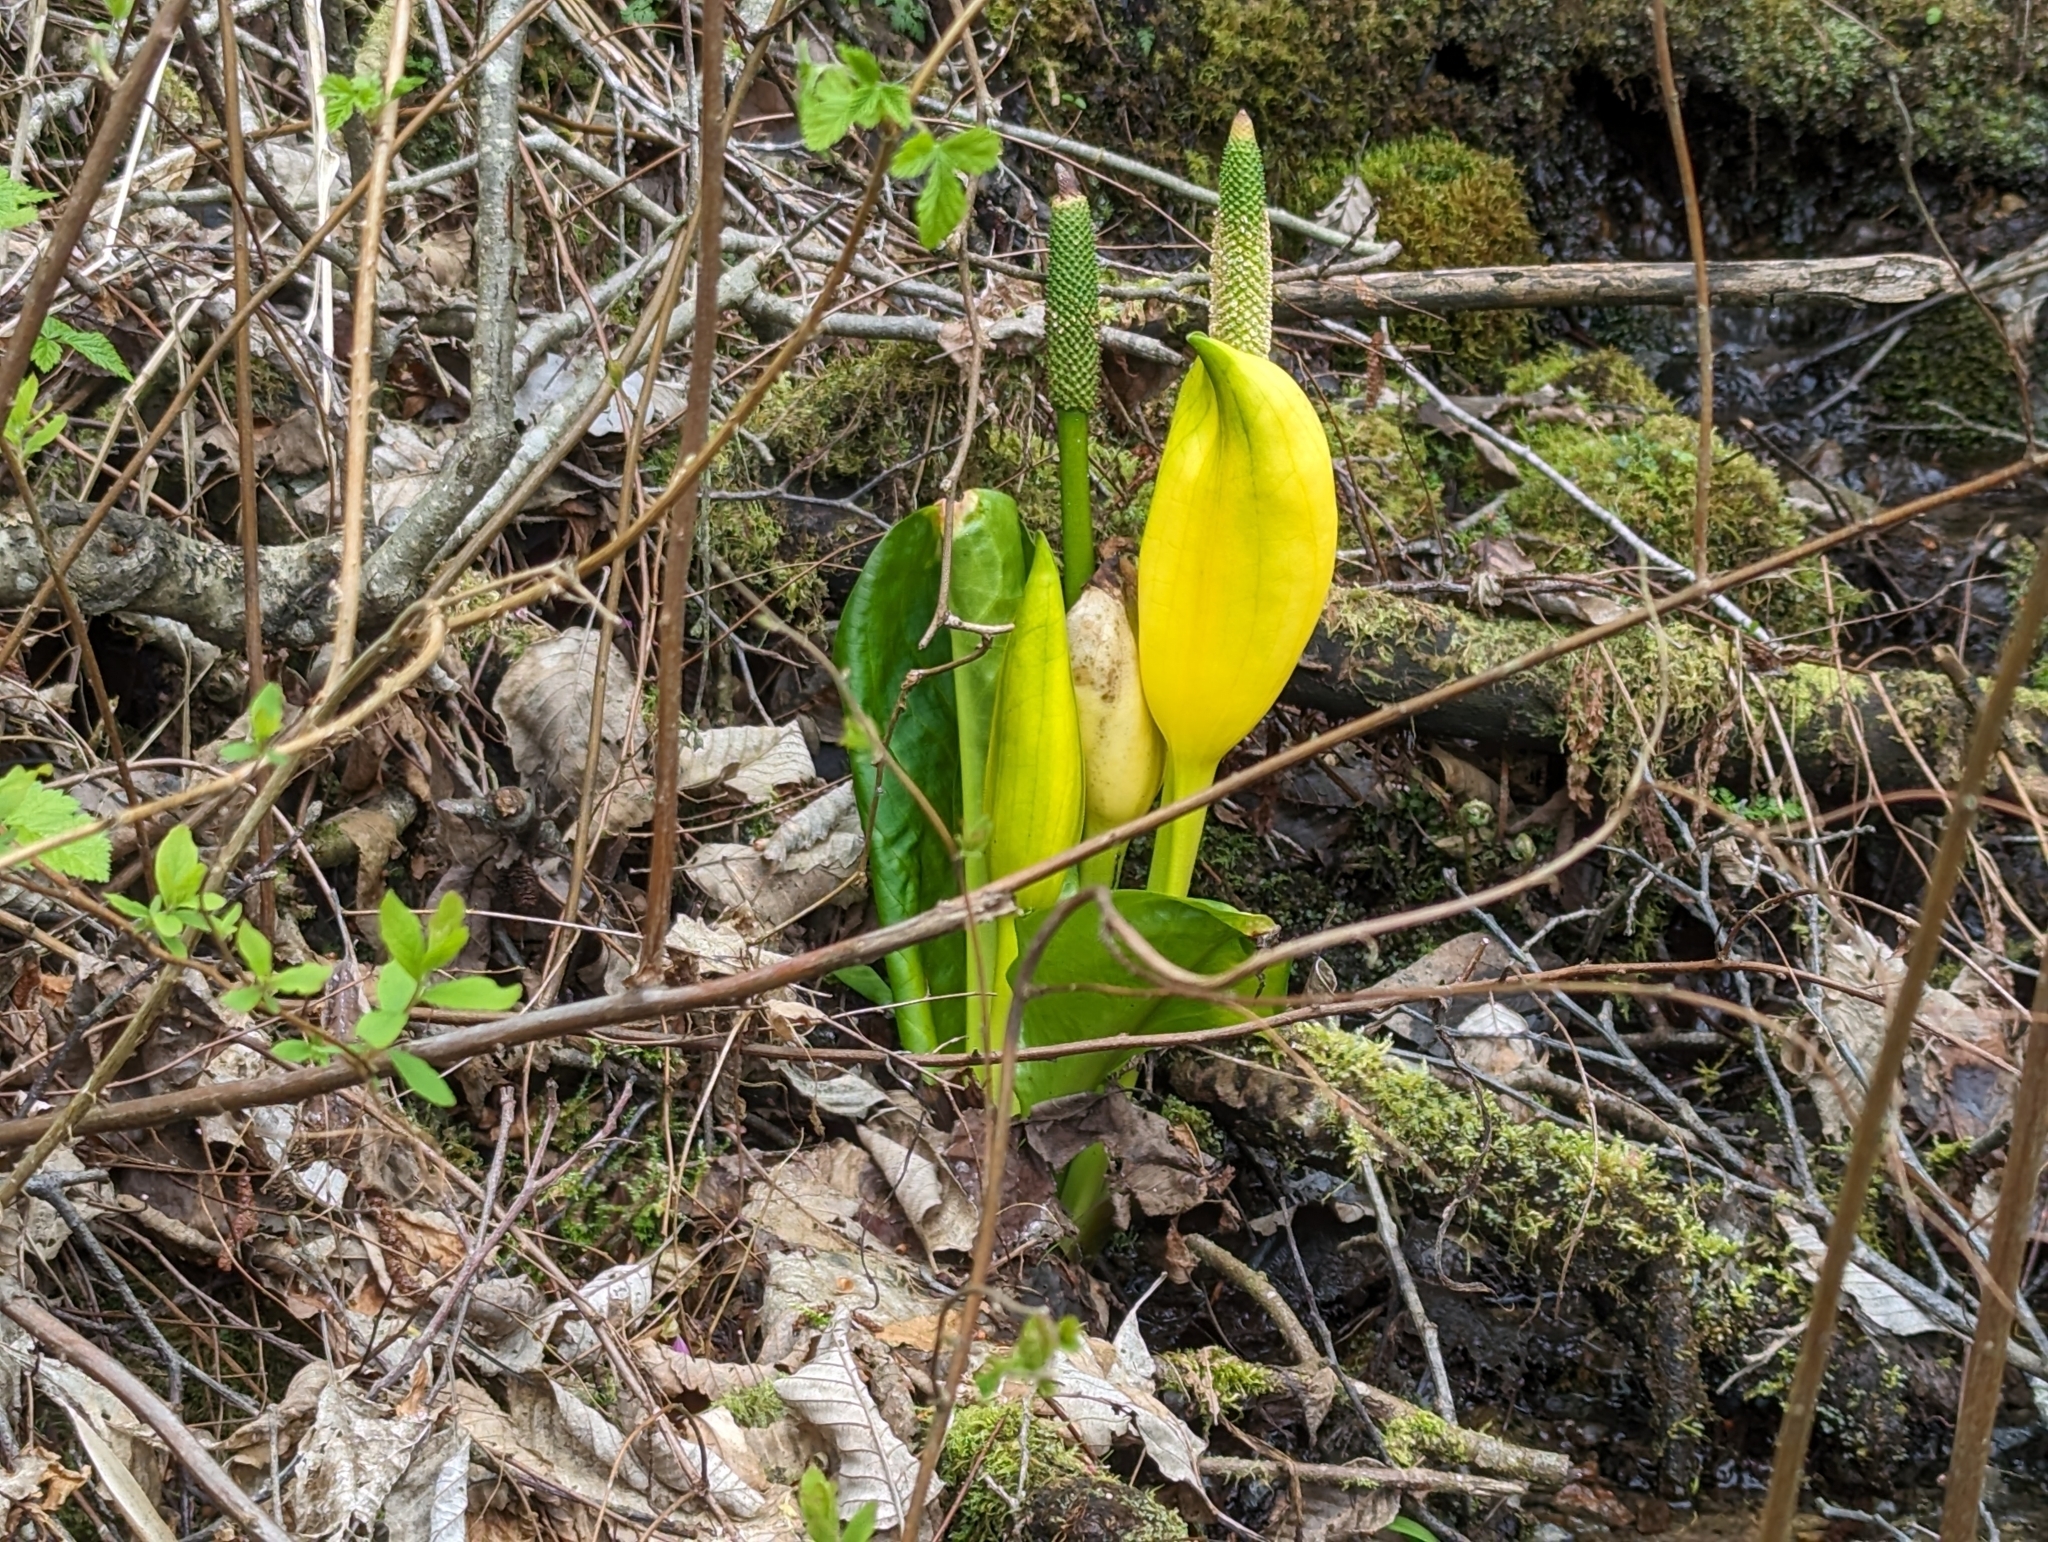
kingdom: Plantae
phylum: Tracheophyta
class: Liliopsida
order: Alismatales
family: Araceae
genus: Lysichiton
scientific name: Lysichiton americanus
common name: American skunk cabbage
